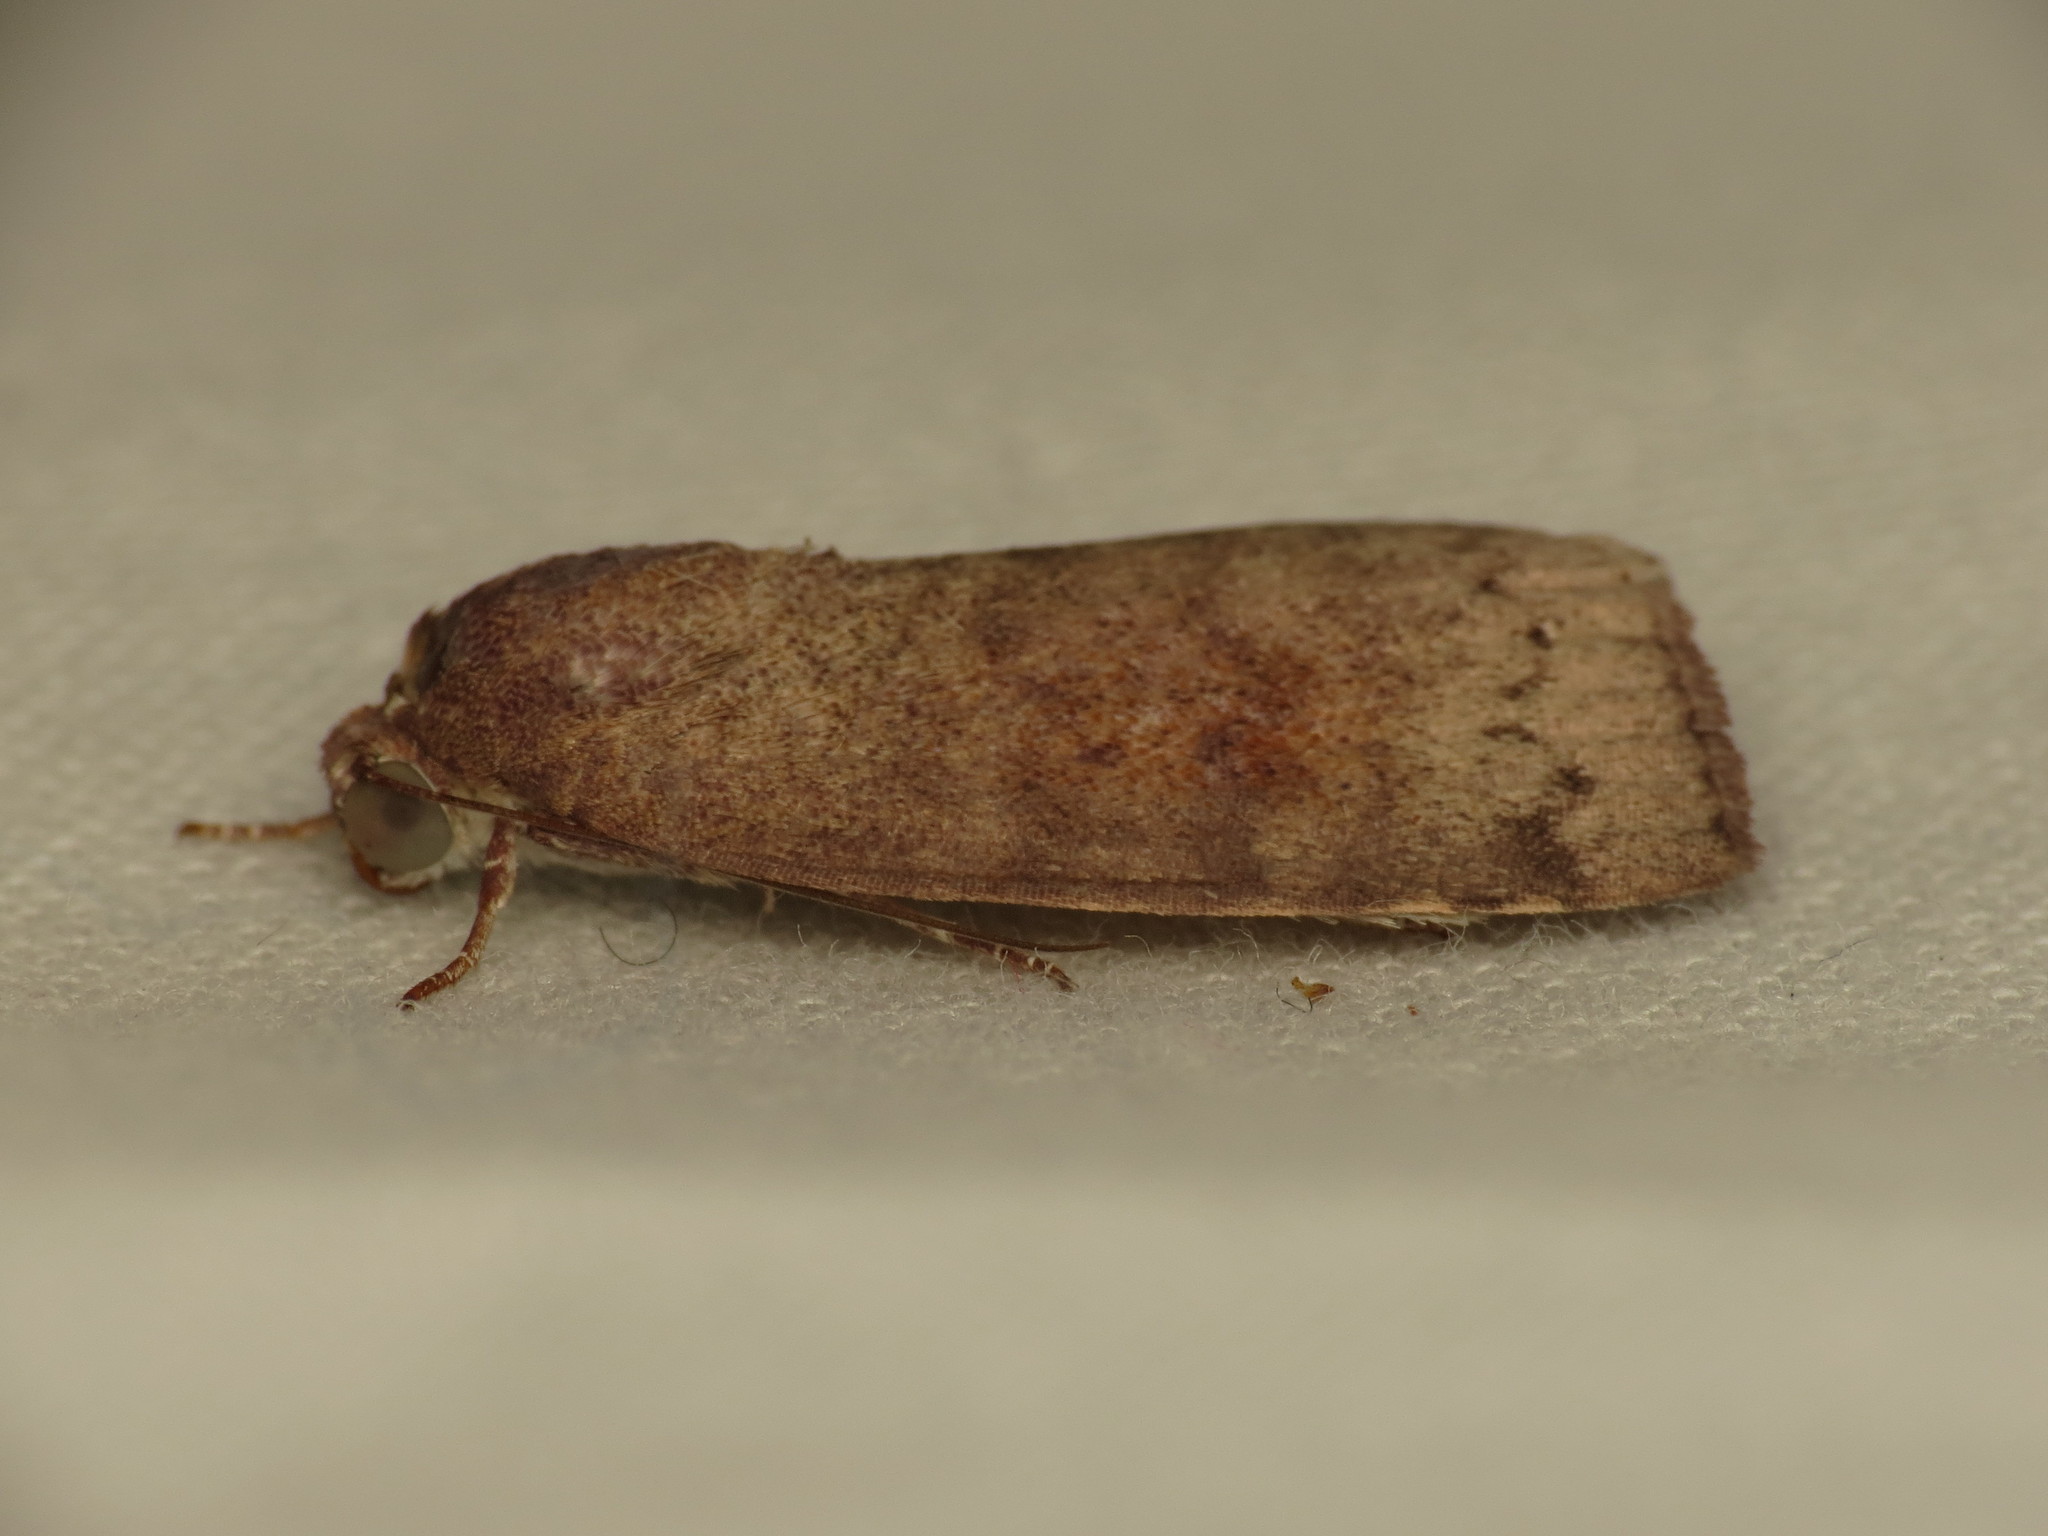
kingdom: Animalia
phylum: Arthropoda
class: Insecta
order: Lepidoptera
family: Nolidae
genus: Austrocarea
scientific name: Austrocarea iocephala
